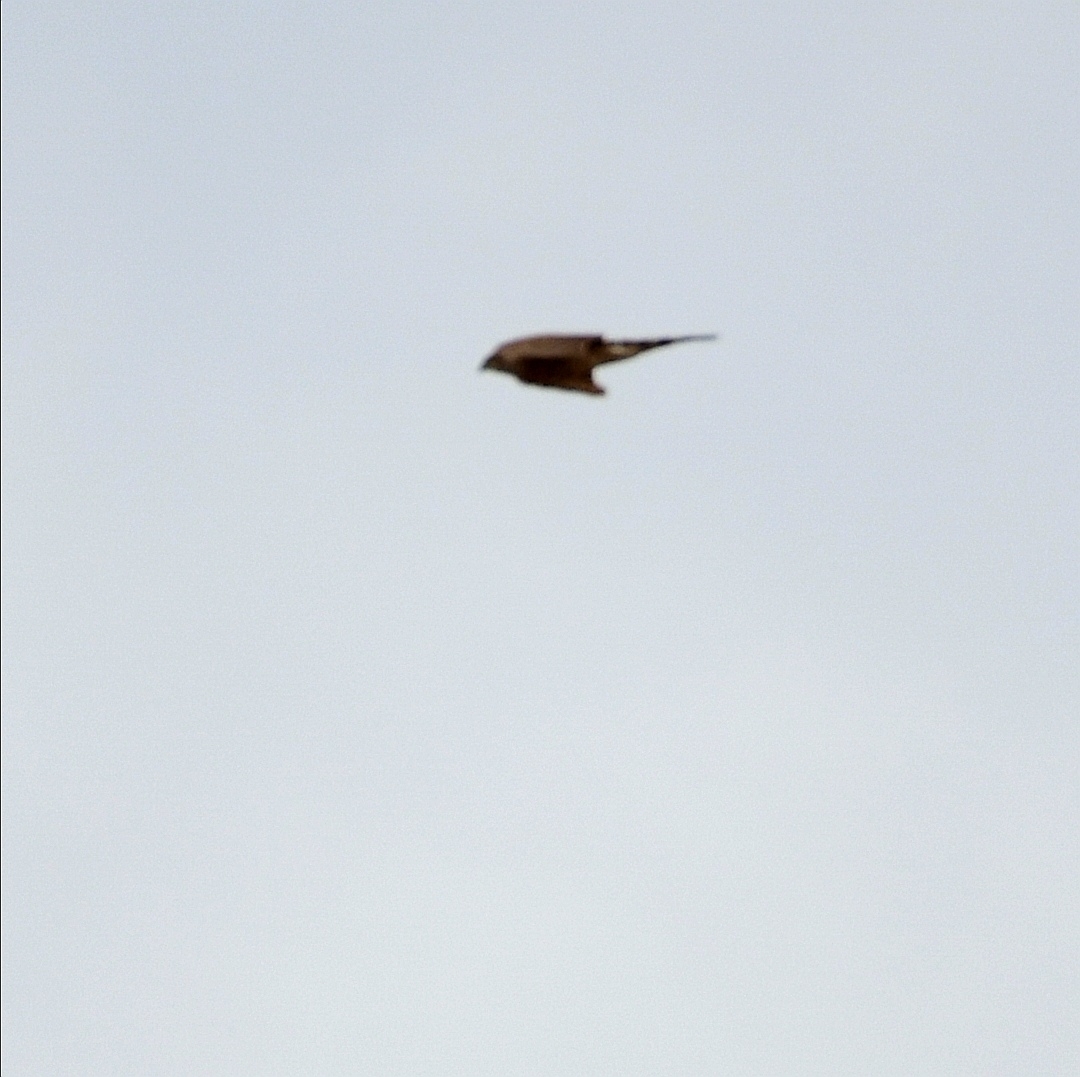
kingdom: Animalia
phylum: Chordata
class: Aves
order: Accipitriformes
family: Accipitridae
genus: Accipiter
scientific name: Accipiter striatus
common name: Sharp-shinned hawk
